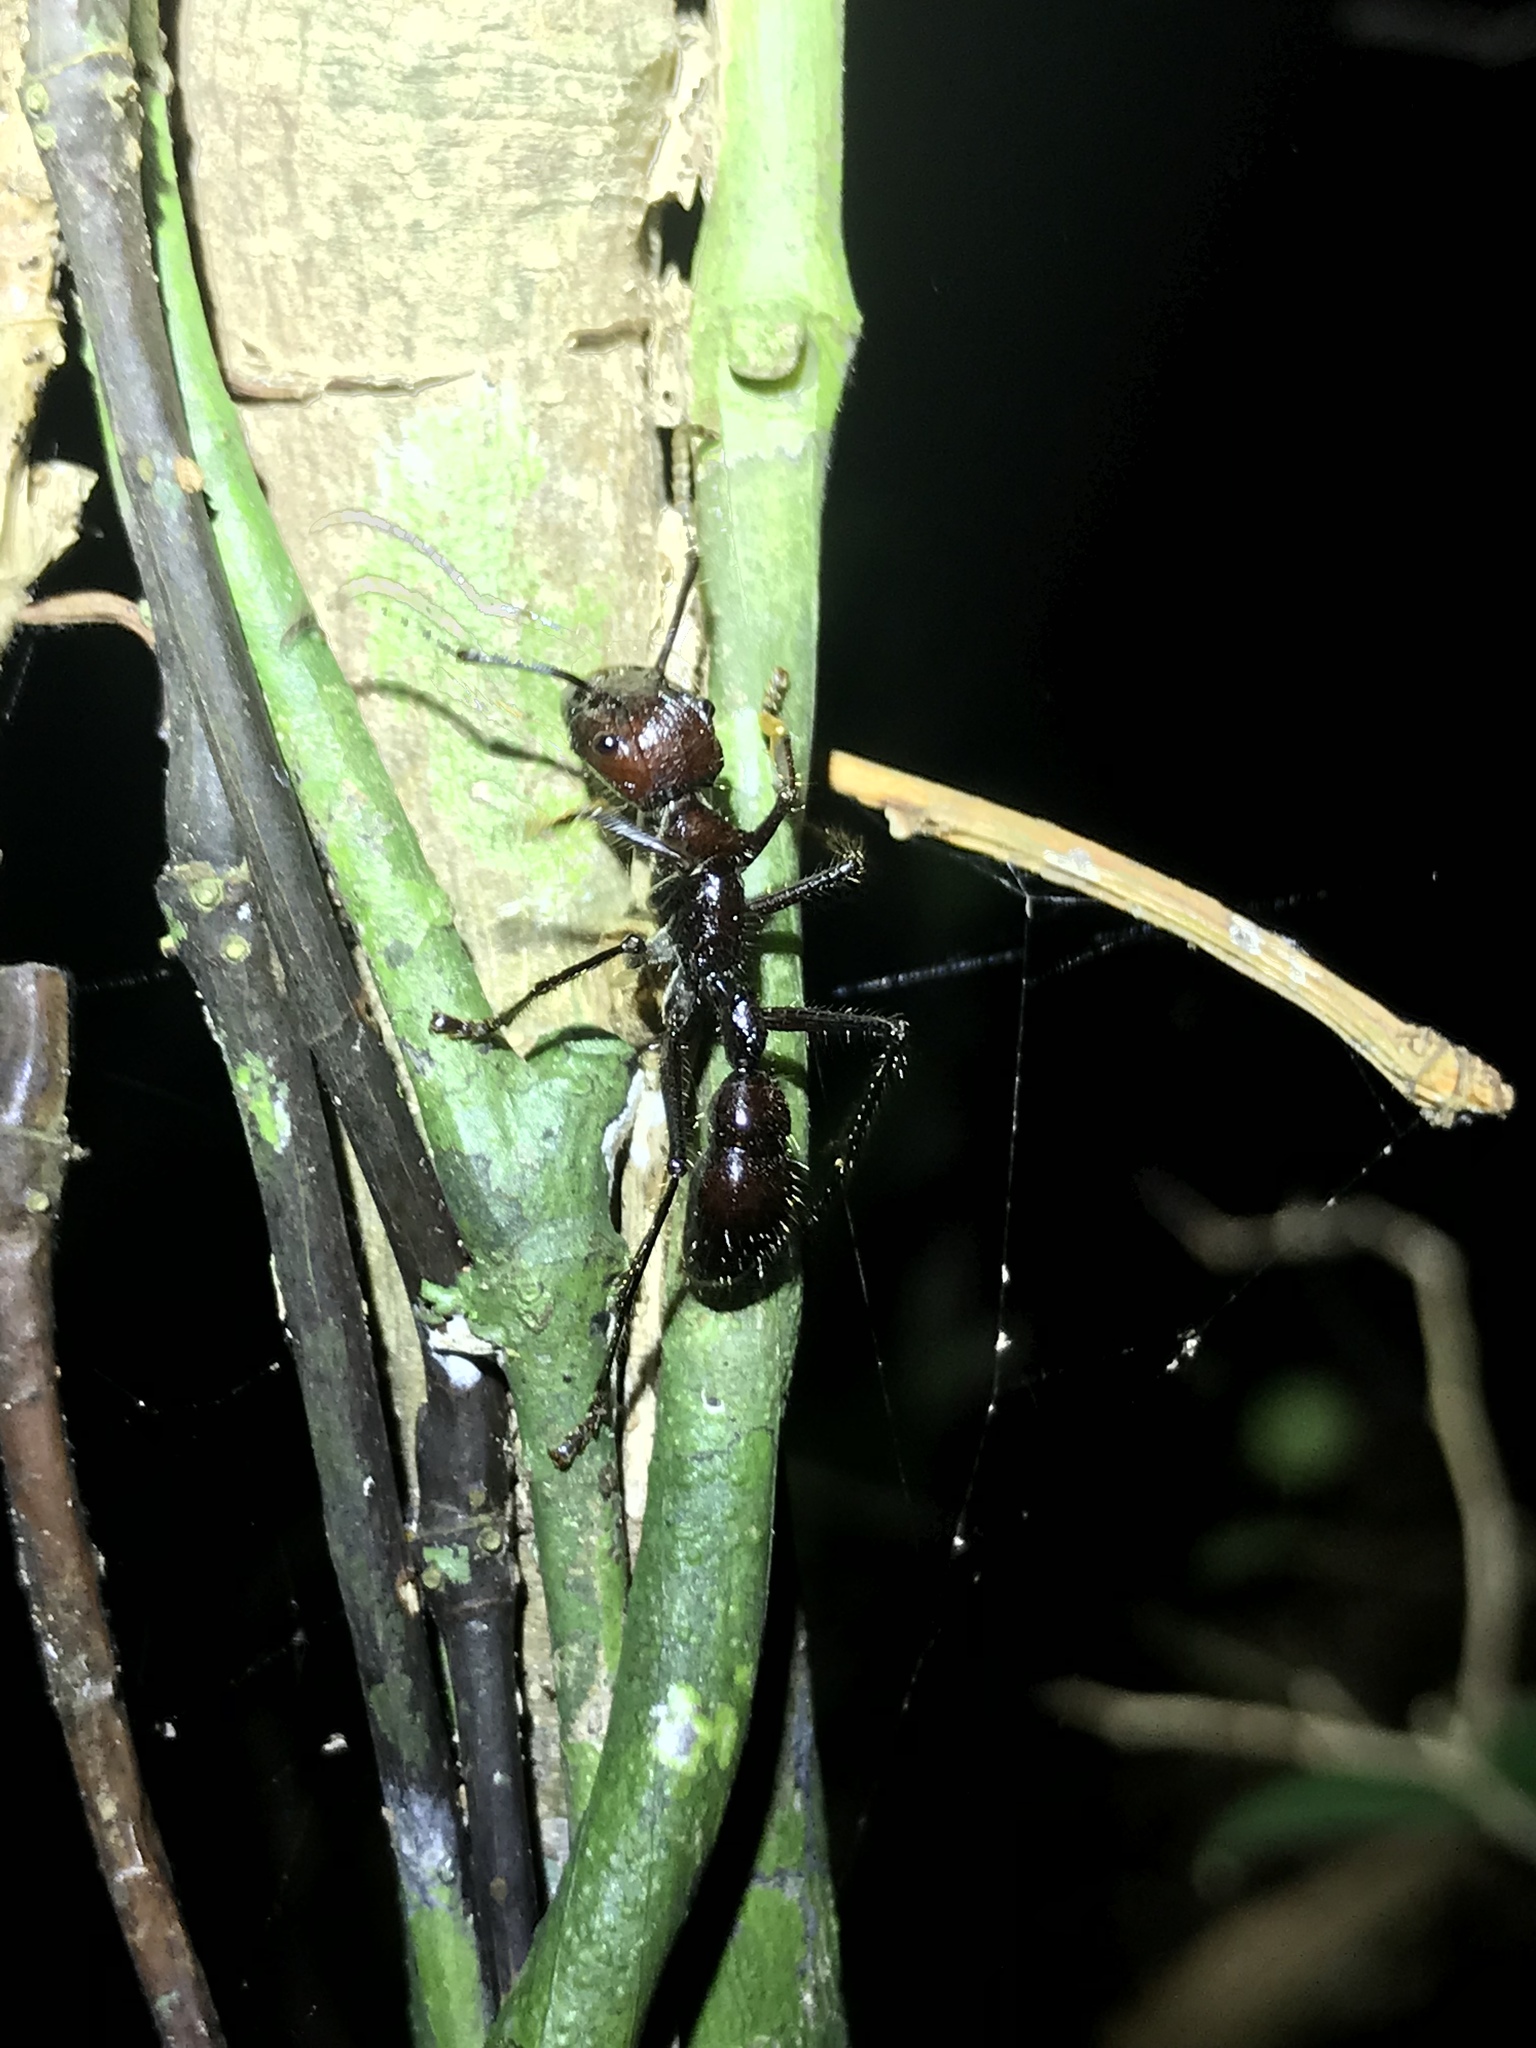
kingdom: Animalia
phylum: Arthropoda
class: Insecta
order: Hymenoptera
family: Formicidae
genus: Paraponera
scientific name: Paraponera clavata
